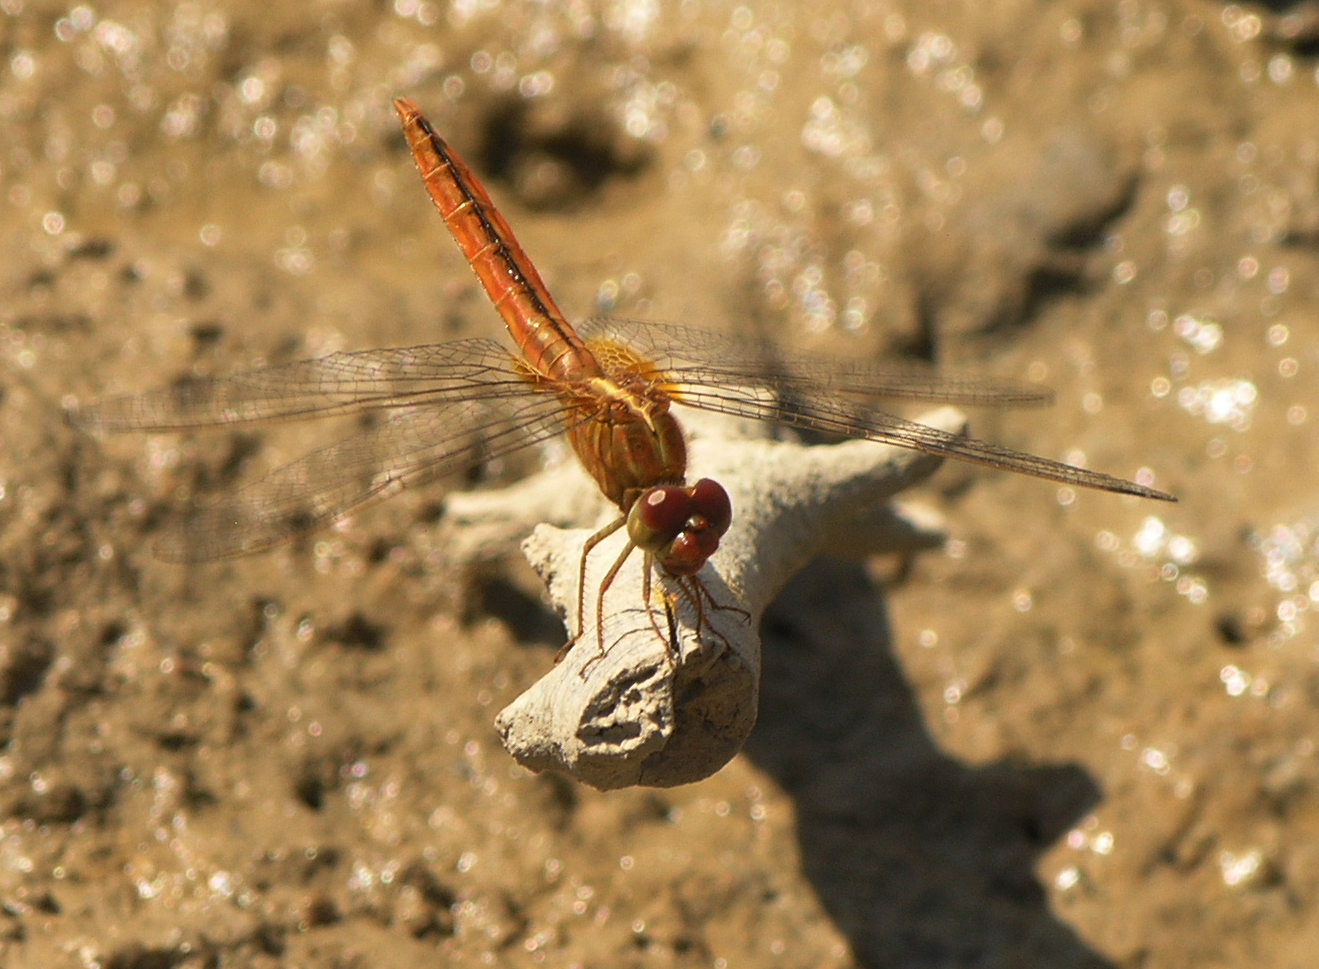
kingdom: Animalia
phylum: Arthropoda
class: Insecta
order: Odonata
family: Libellulidae
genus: Crocothemis
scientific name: Crocothemis servilia
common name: Scarlet skimmer
